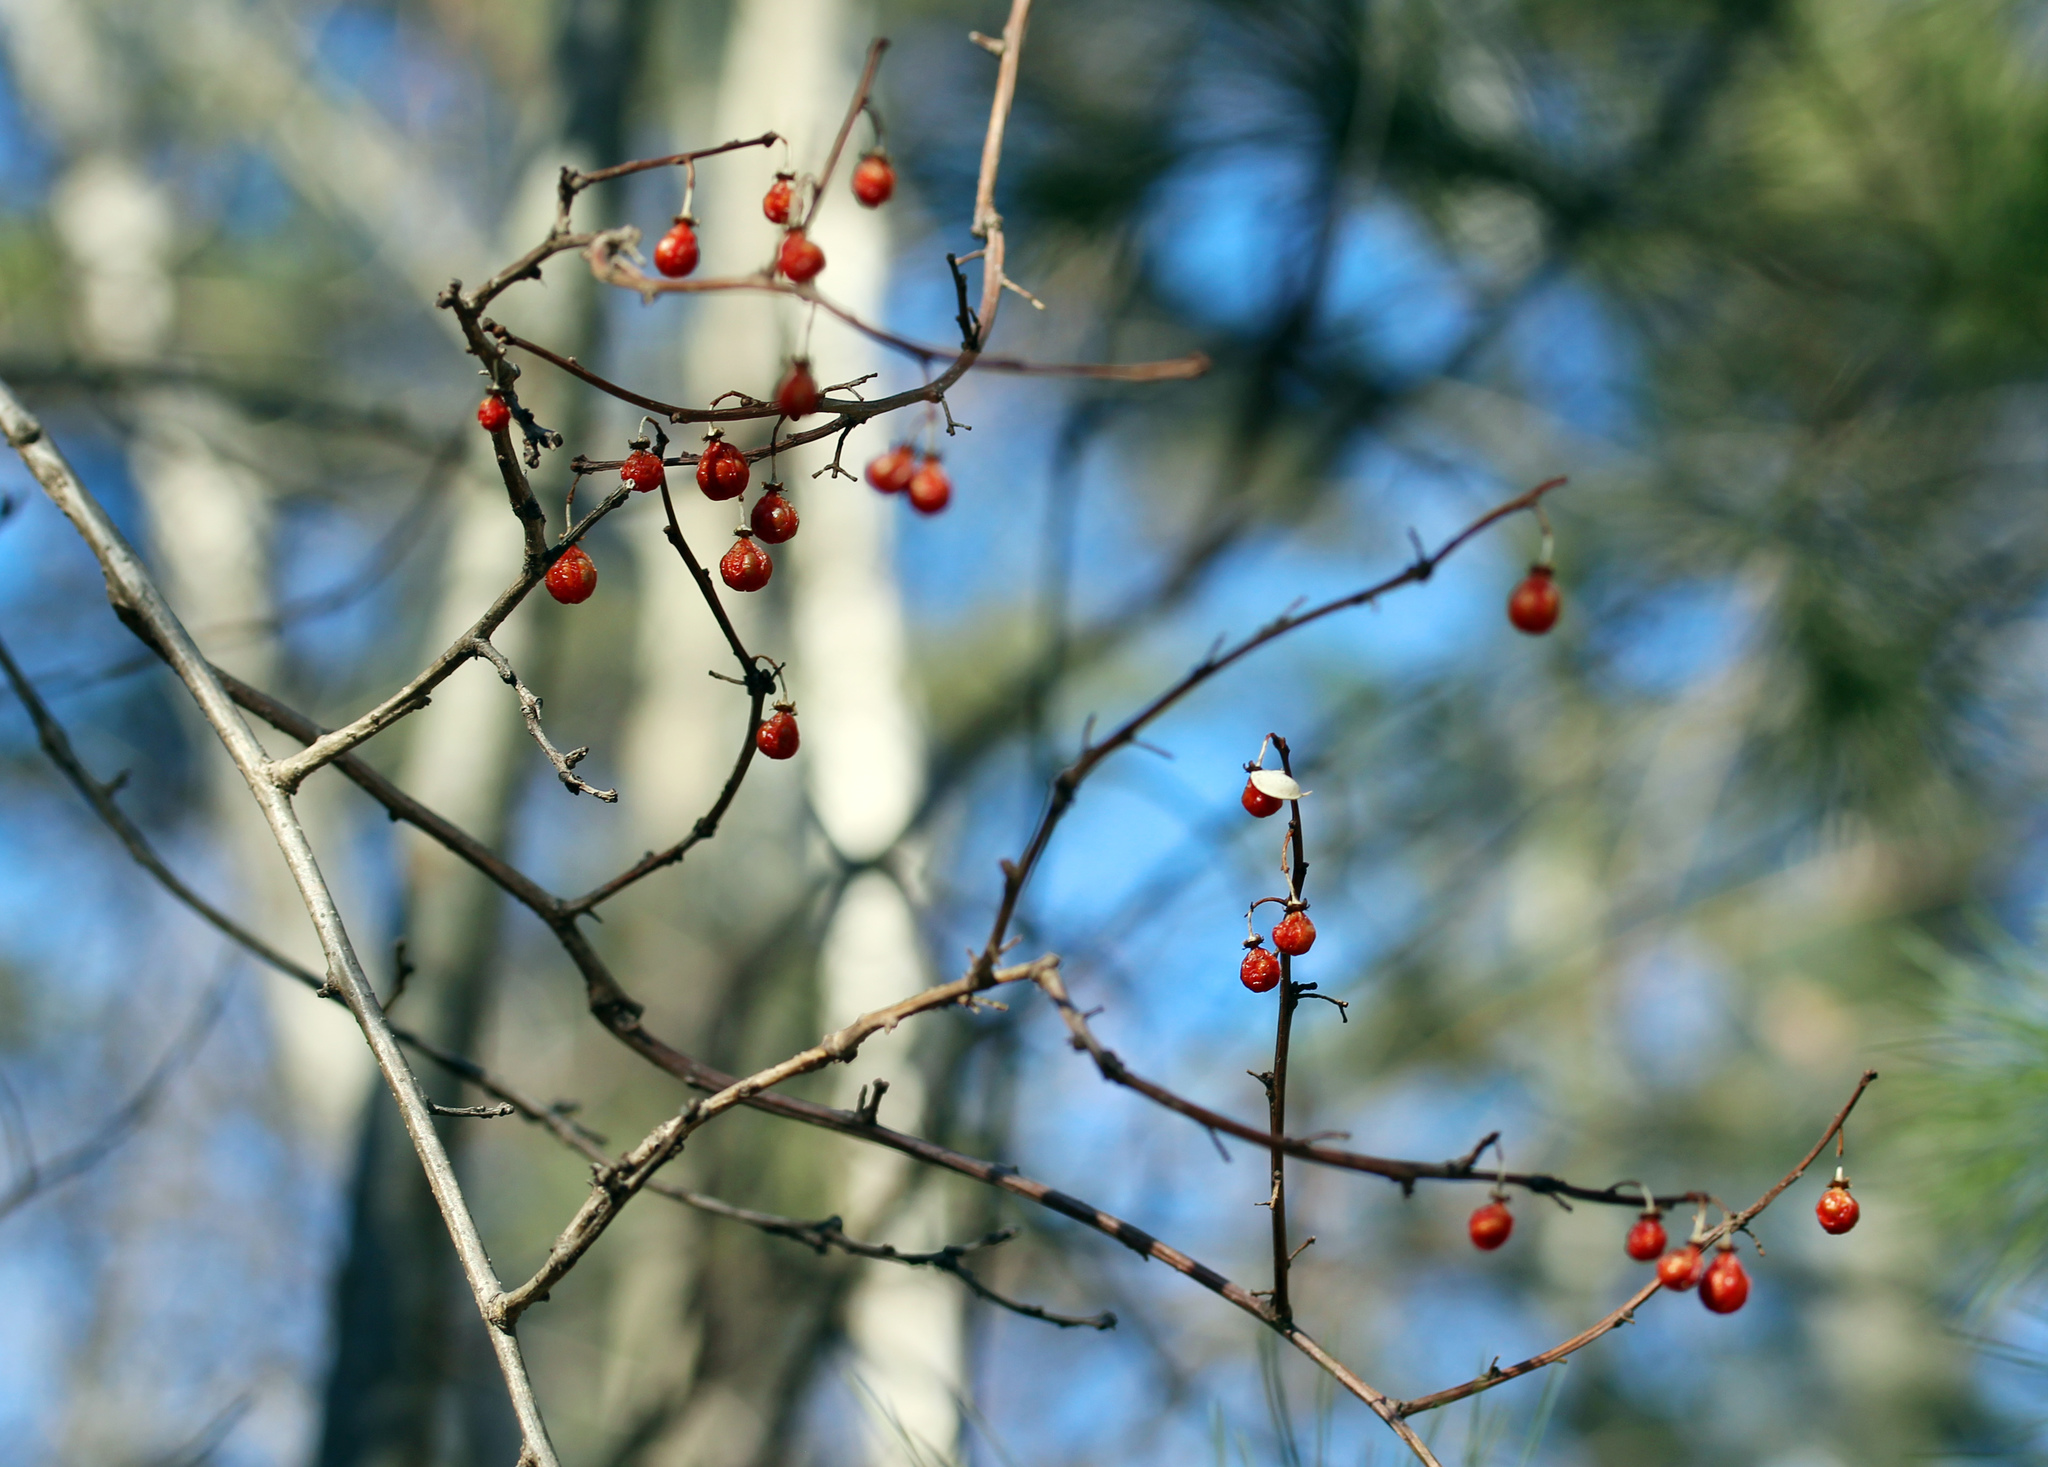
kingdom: Plantae
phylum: Tracheophyta
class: Magnoliopsida
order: Celastrales
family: Celastraceae
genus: Celastrus
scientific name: Celastrus orbiculatus
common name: Oriental bittersweet
